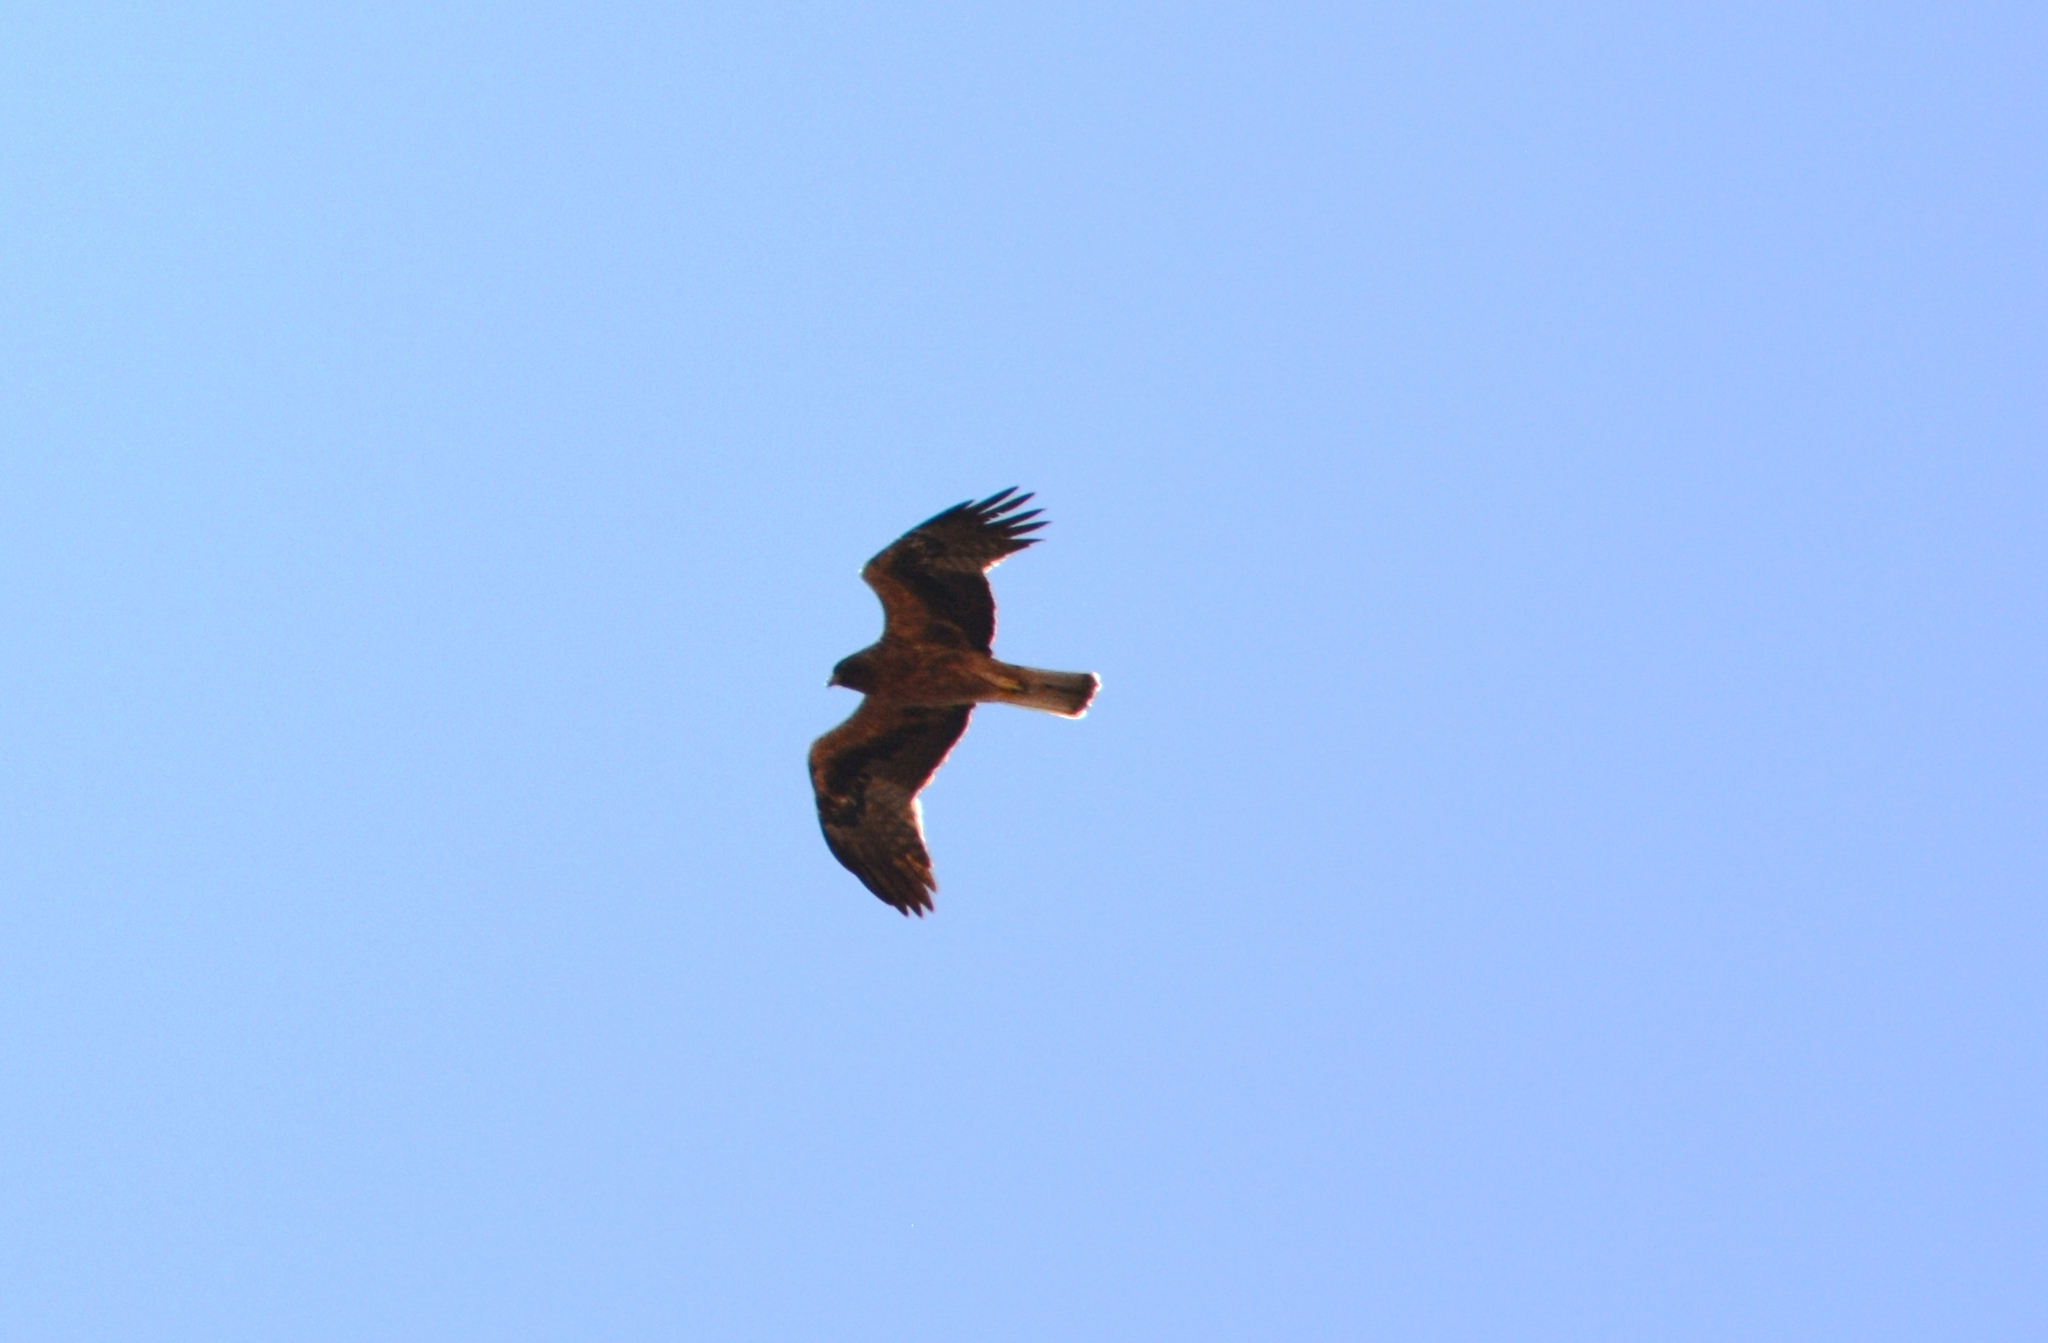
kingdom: Animalia
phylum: Chordata
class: Aves
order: Accipitriformes
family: Accipitridae
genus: Hieraaetus
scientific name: Hieraaetus pennatus
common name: Booted eagle
